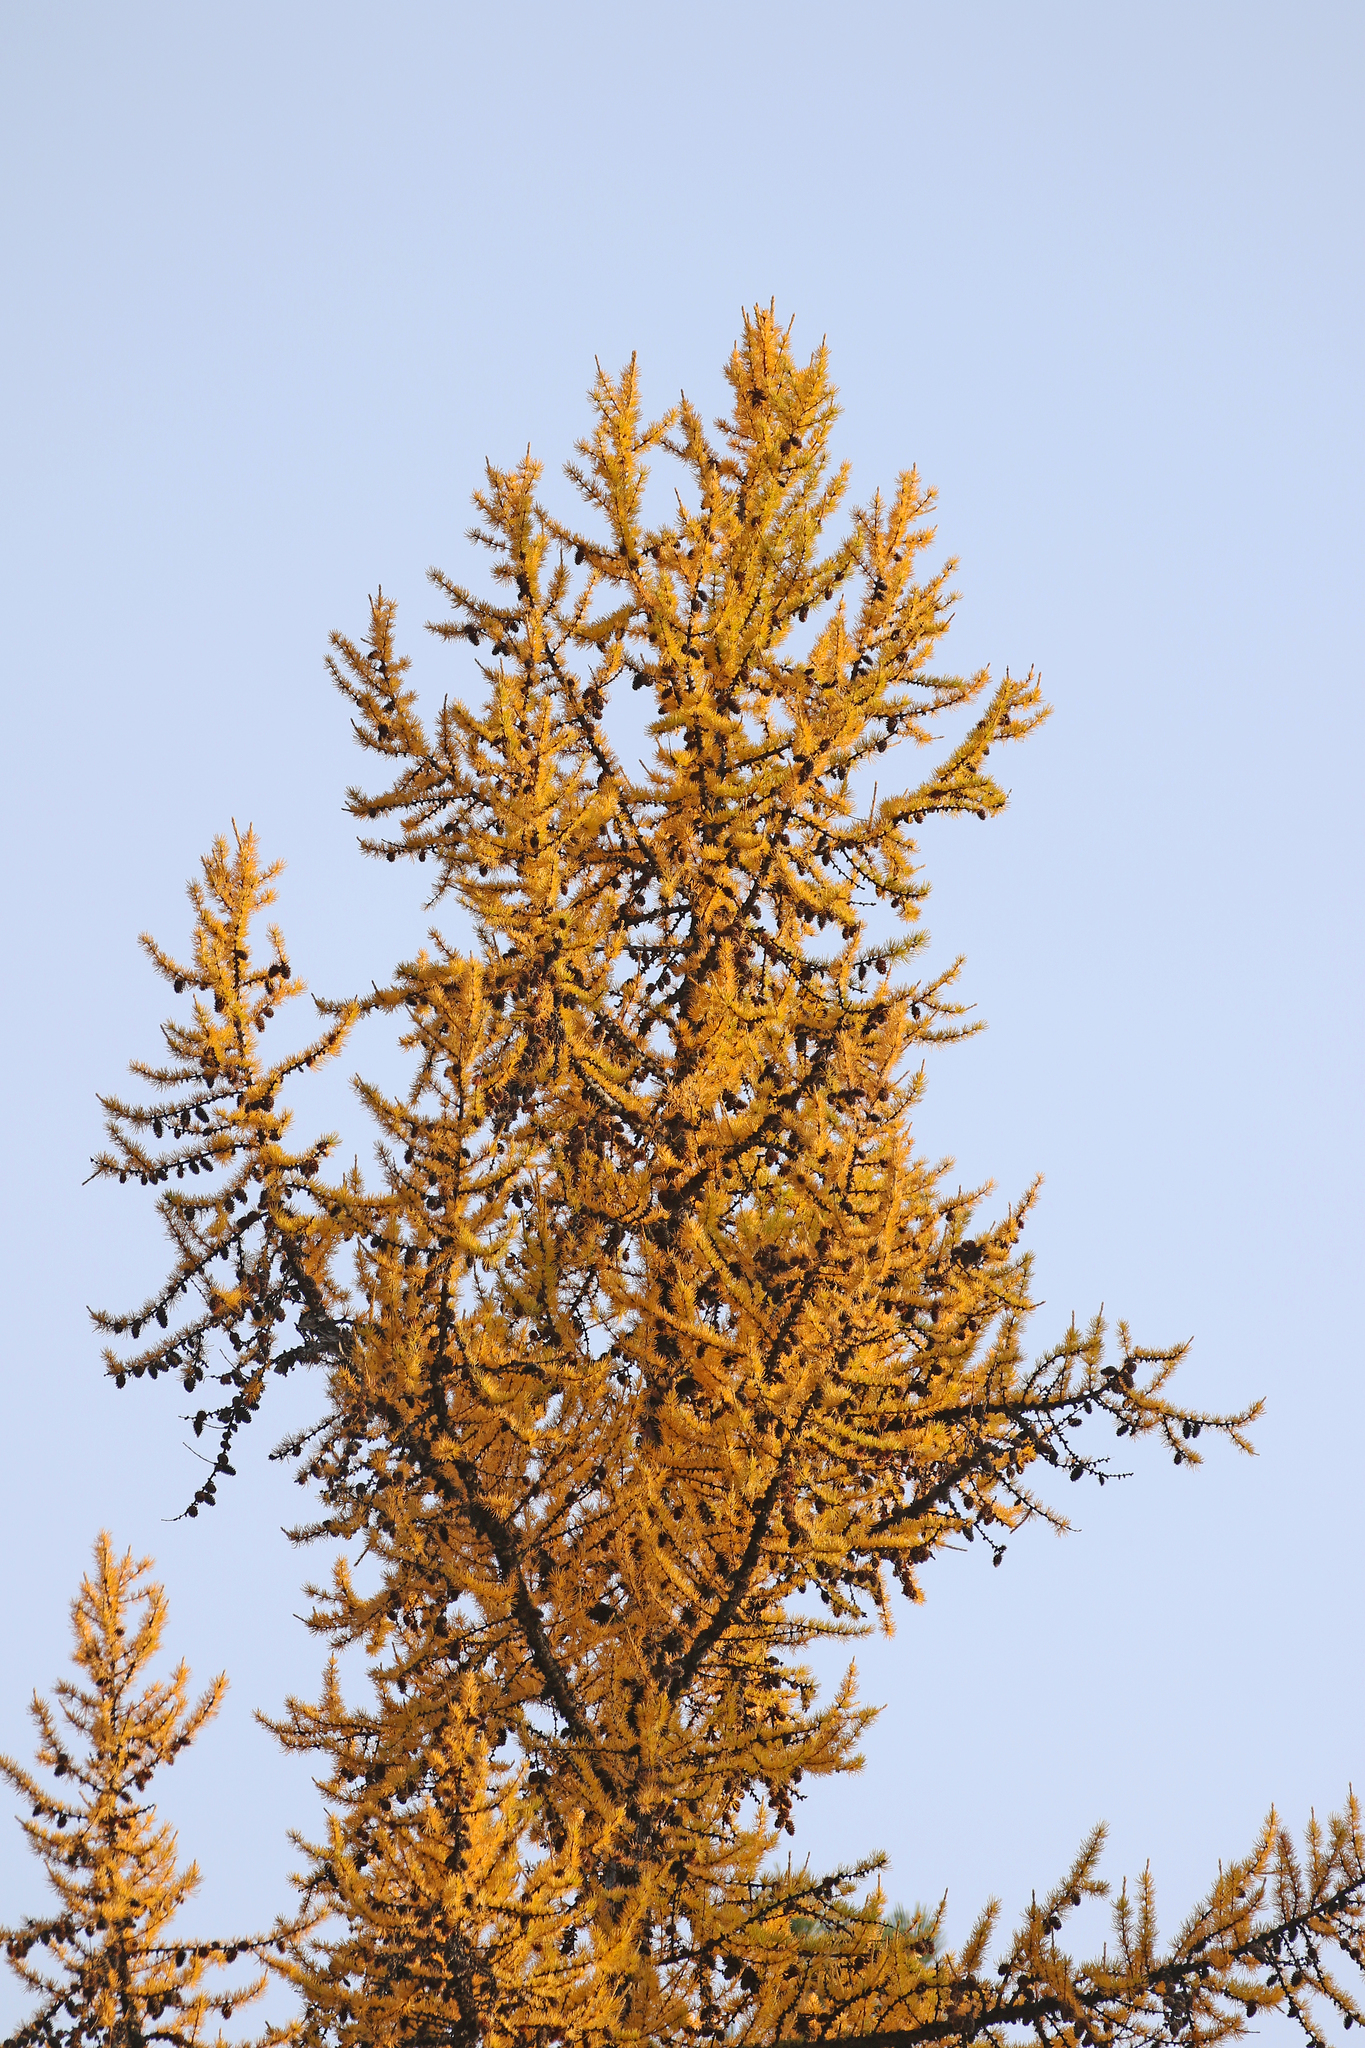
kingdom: Plantae
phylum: Tracheophyta
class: Pinopsida
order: Pinales
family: Pinaceae
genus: Larix
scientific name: Larix occidentalis
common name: Western larch
